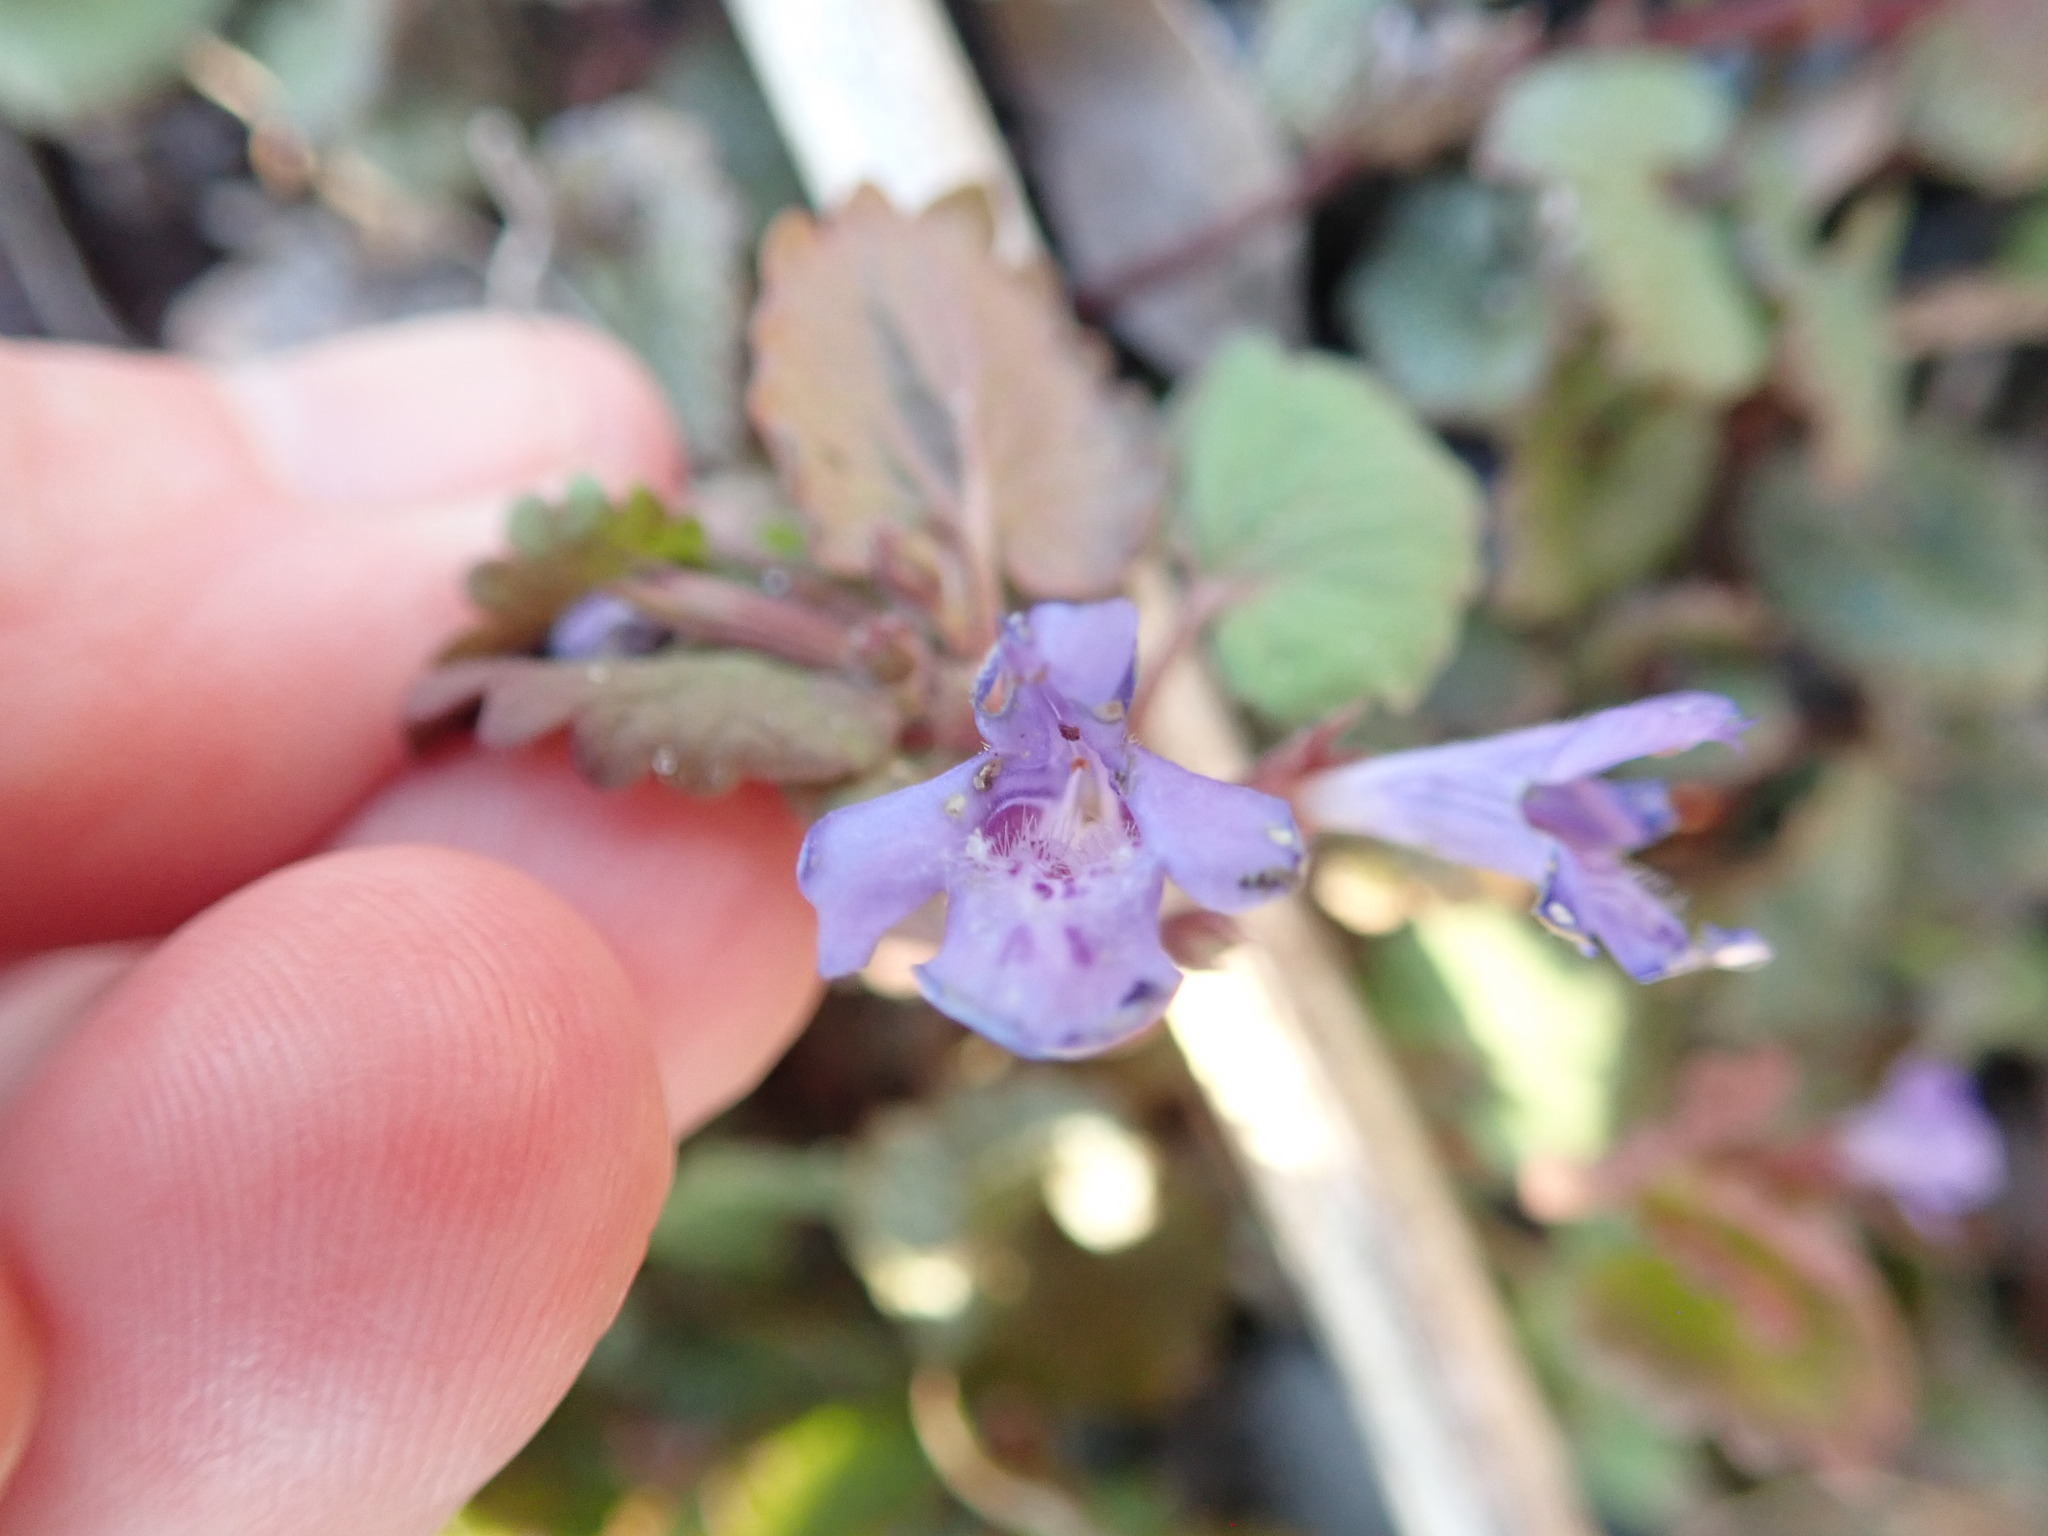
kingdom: Plantae
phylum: Tracheophyta
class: Magnoliopsida
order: Lamiales
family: Lamiaceae
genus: Glechoma
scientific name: Glechoma hederacea
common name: Ground ivy
